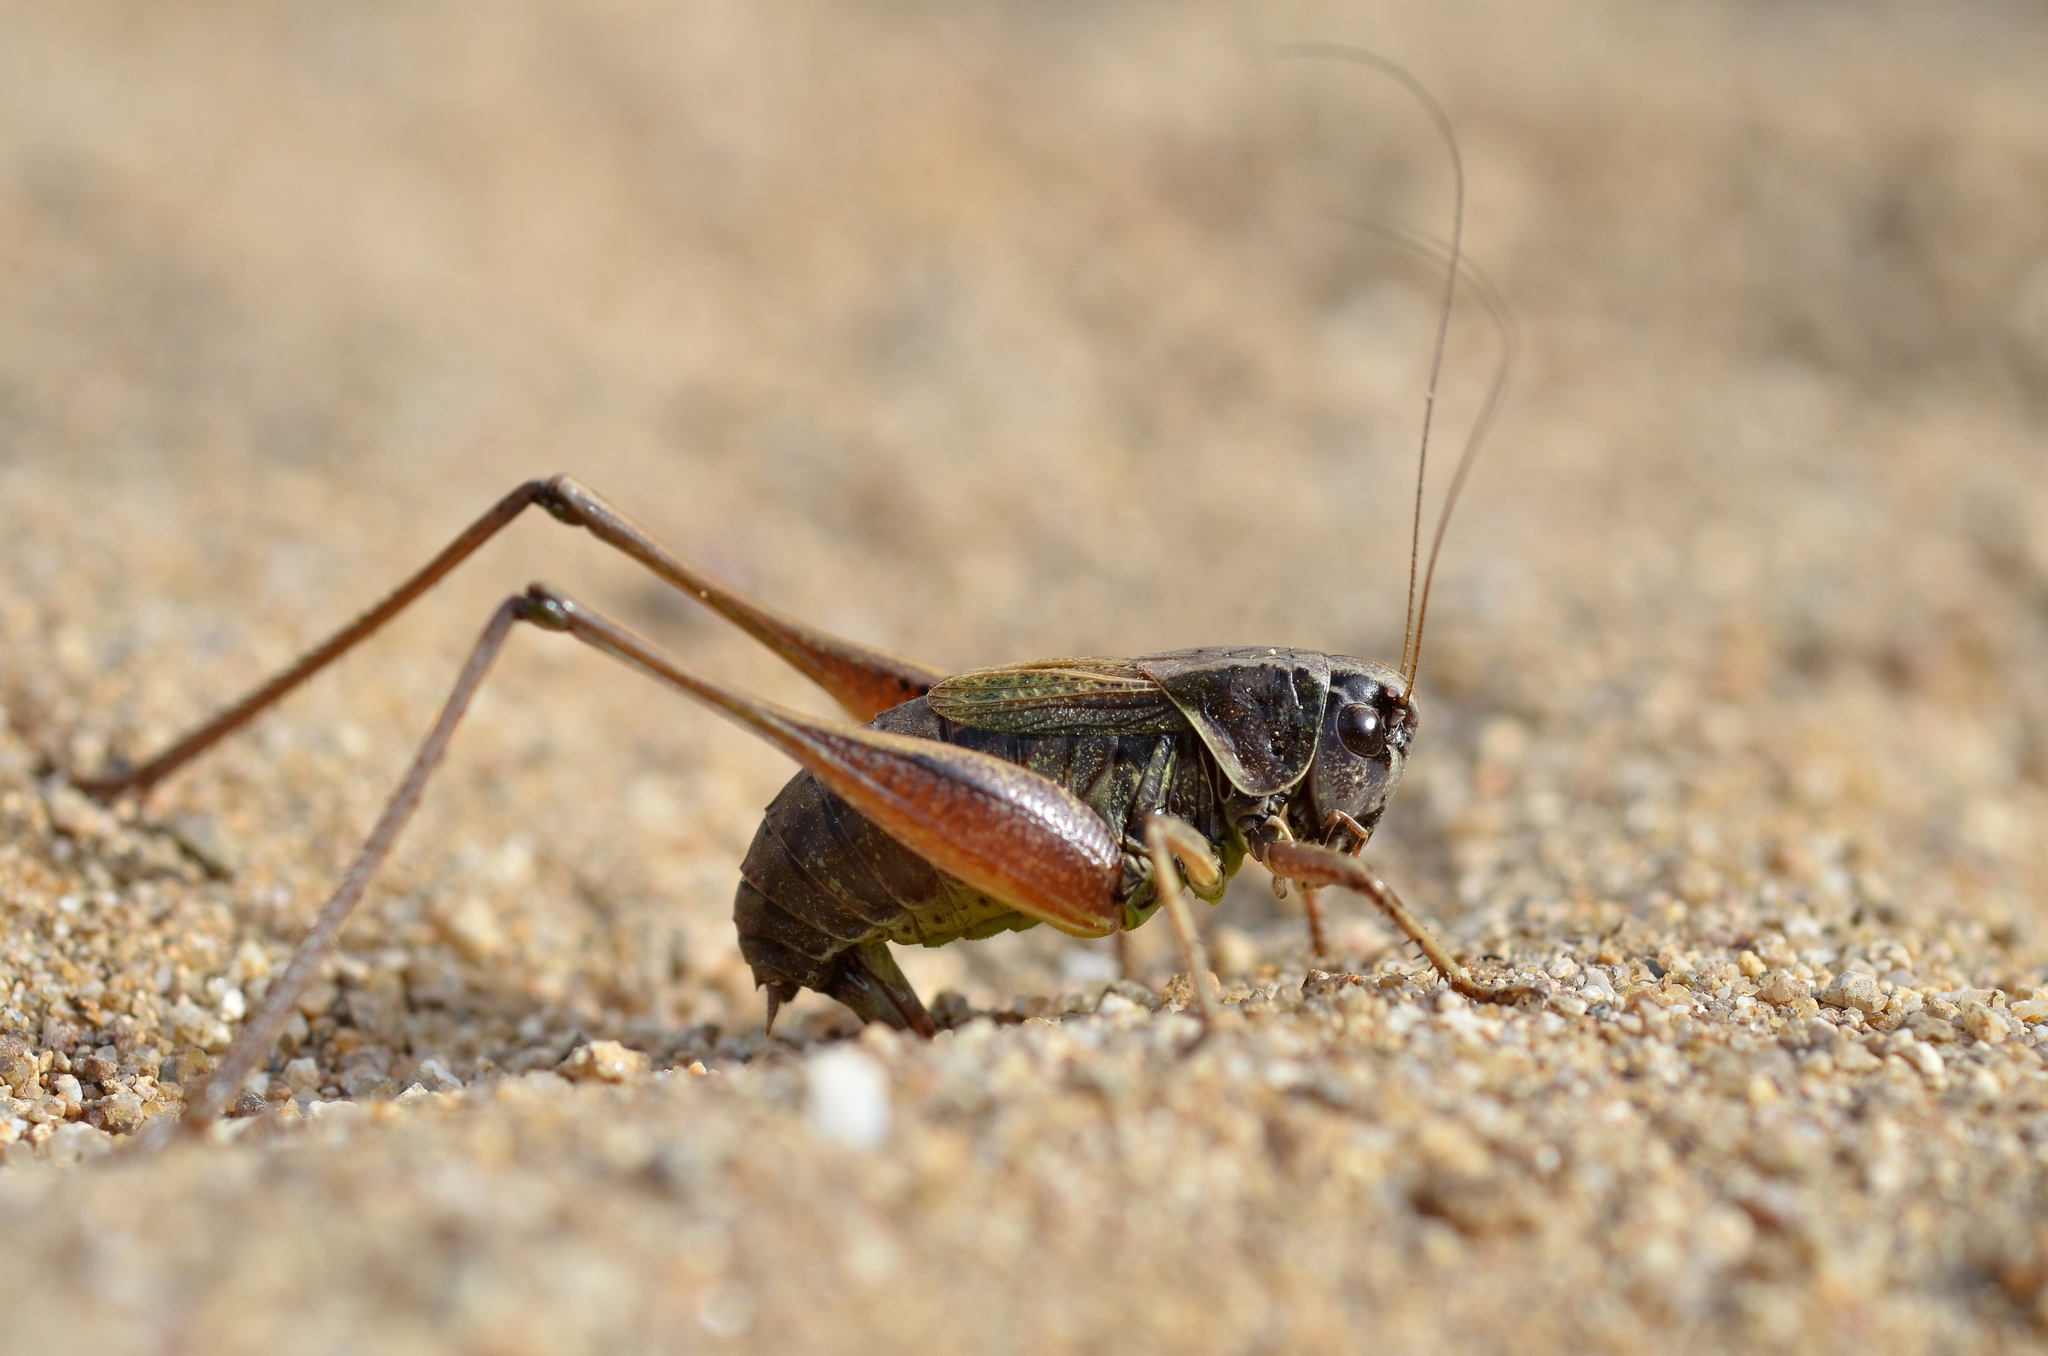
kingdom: Animalia
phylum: Arthropoda
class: Insecta
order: Orthoptera
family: Tettigoniidae
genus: Metrioptera
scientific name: Metrioptera saussuriana
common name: Purple meadow bush-cricket
